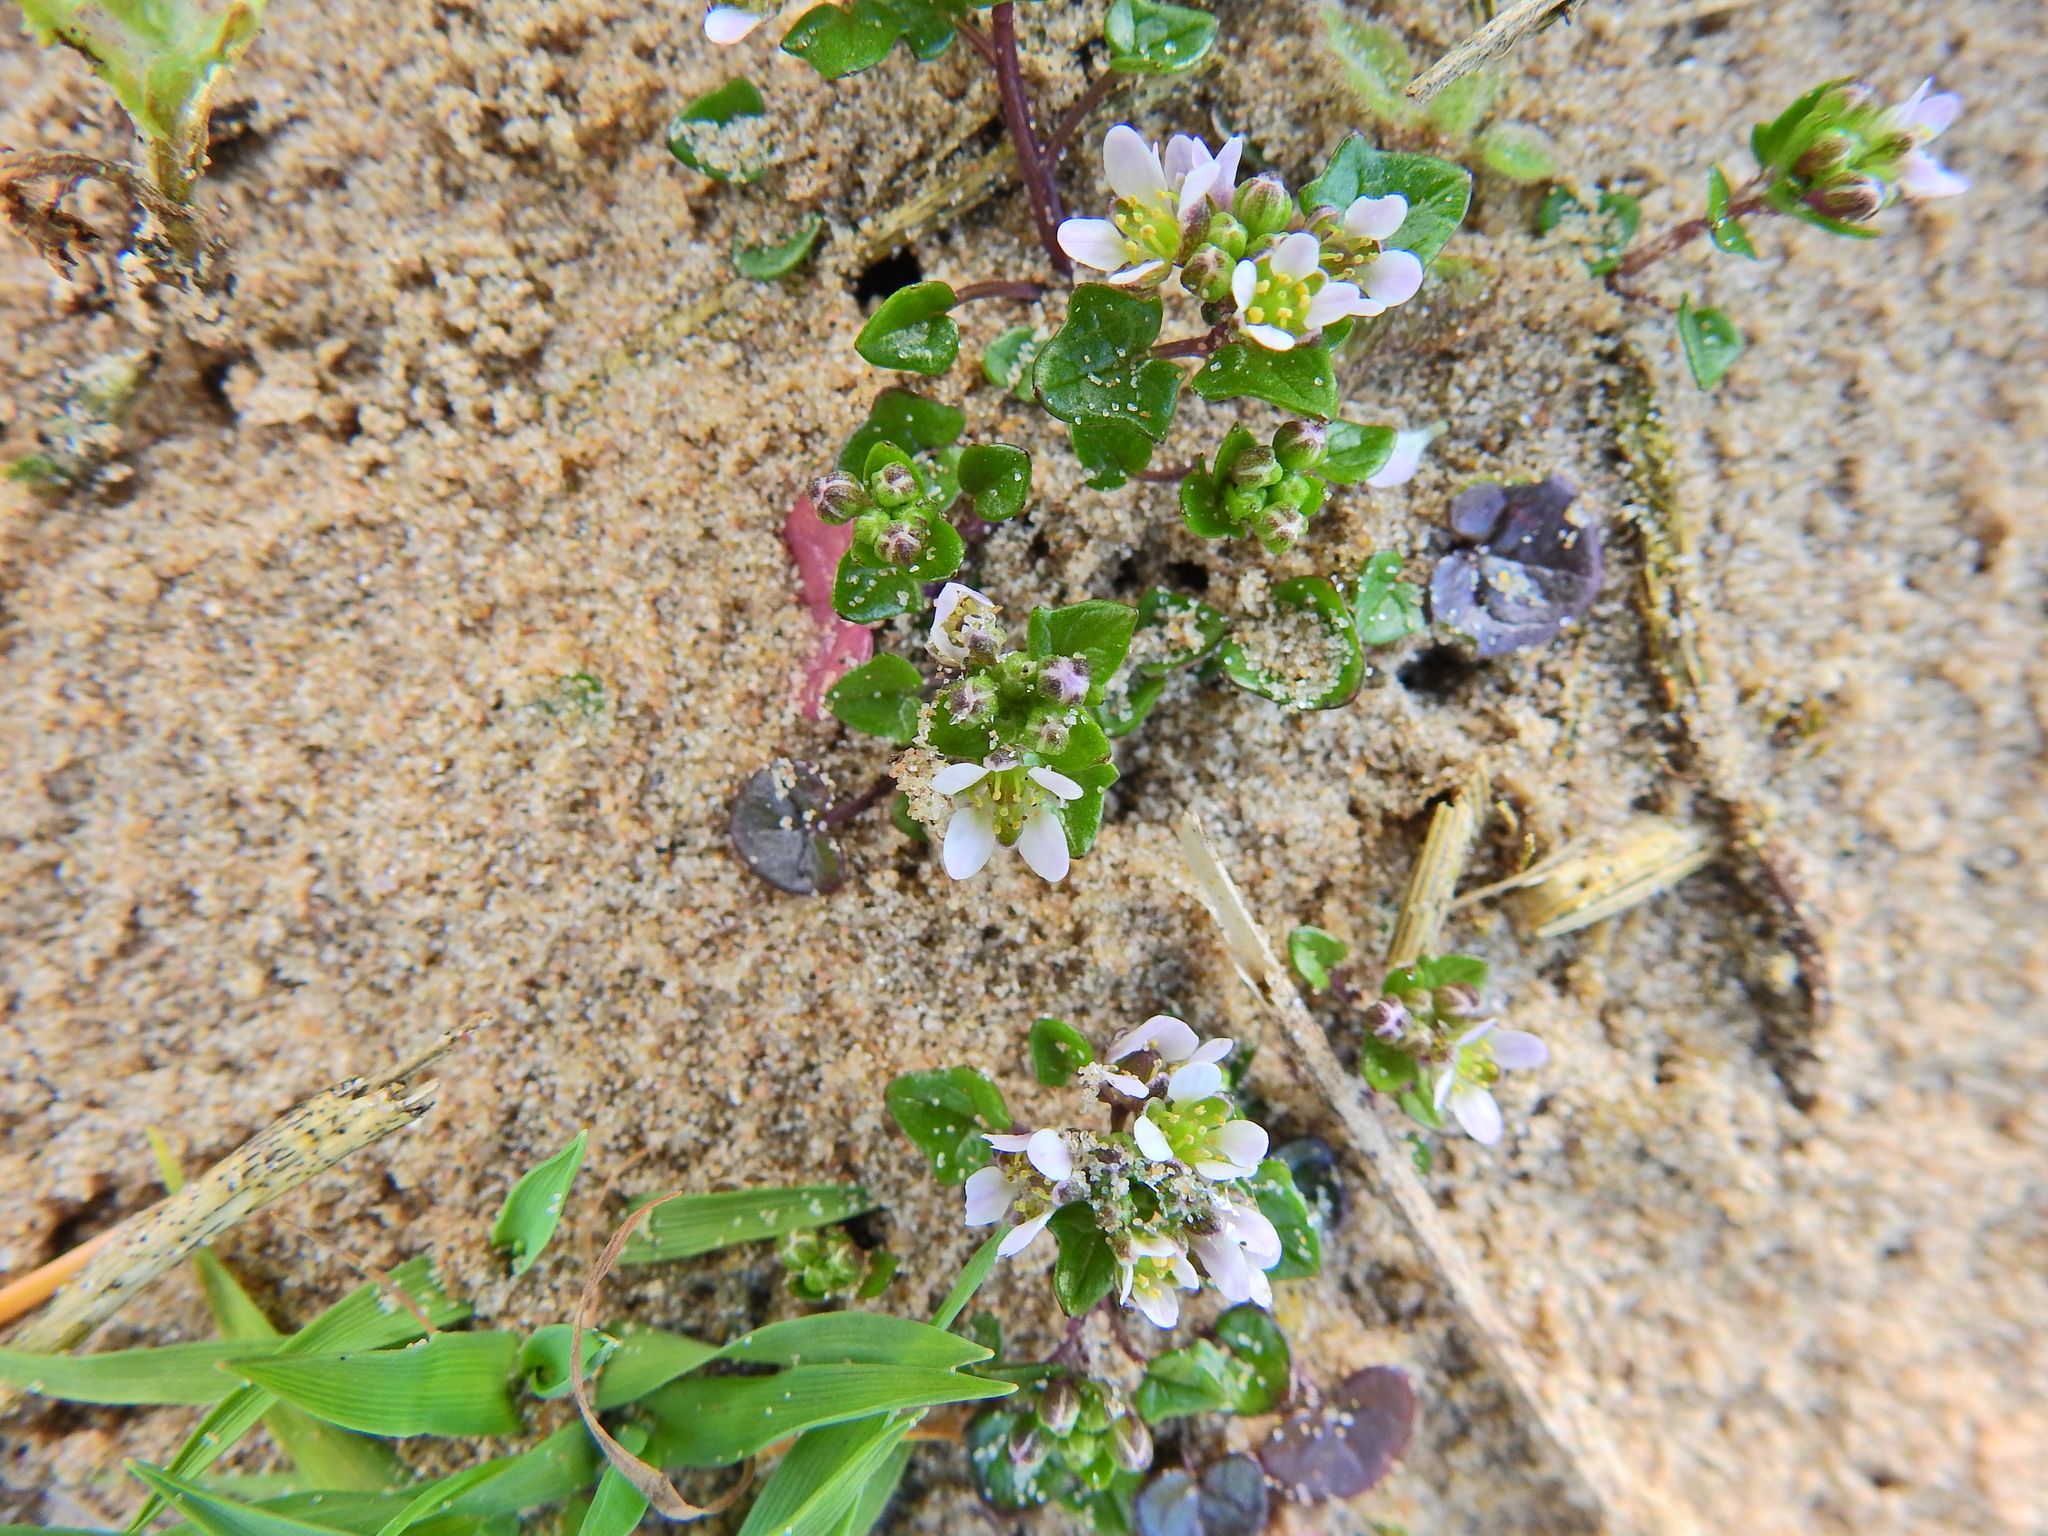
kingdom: Plantae
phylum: Tracheophyta
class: Magnoliopsida
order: Brassicales
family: Brassicaceae
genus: Cochlearia
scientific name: Cochlearia danica
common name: Early scurvygrass
